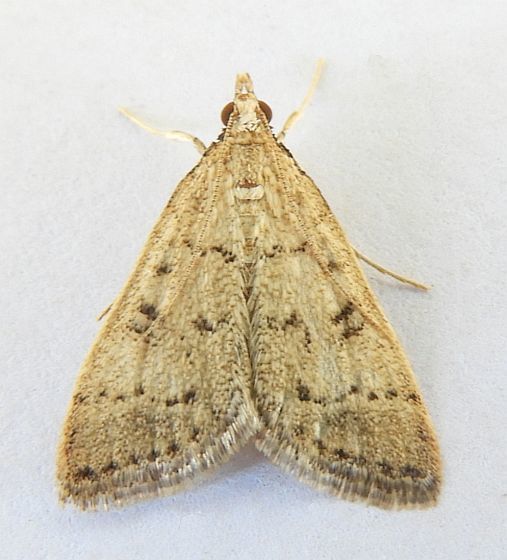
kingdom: Animalia
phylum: Arthropoda
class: Insecta
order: Lepidoptera
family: Crambidae
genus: Lamprosema
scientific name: Lamprosema
